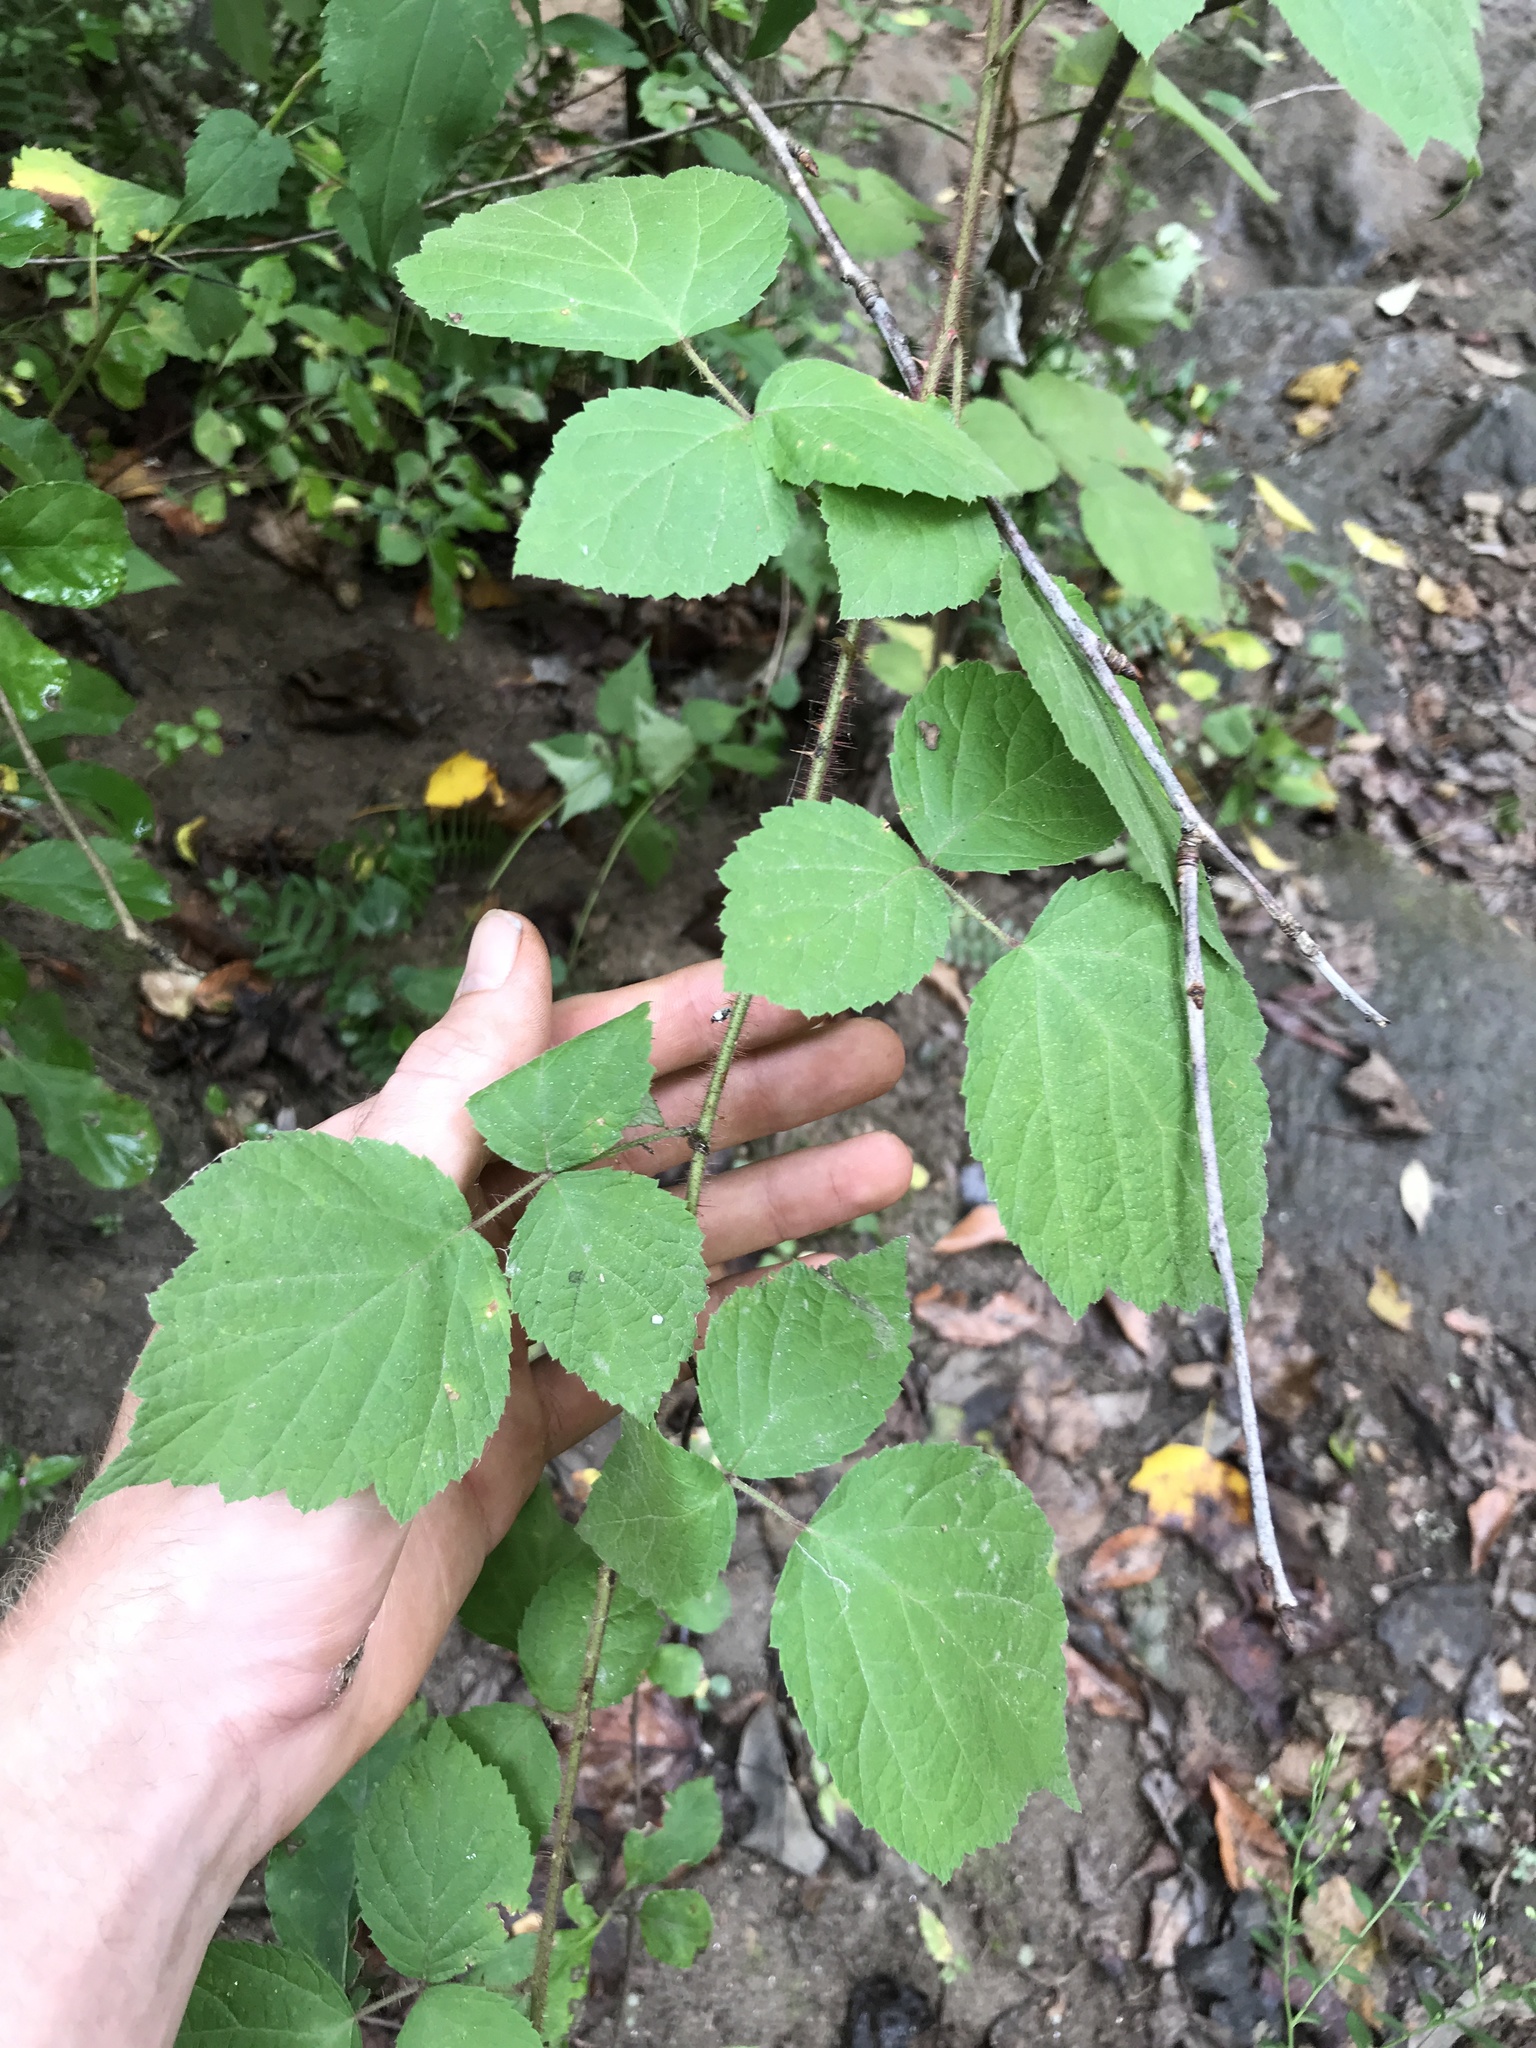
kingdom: Plantae
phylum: Tracheophyta
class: Magnoliopsida
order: Rosales
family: Rosaceae
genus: Rubus
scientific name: Rubus phoenicolasius
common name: Japanese wineberry
